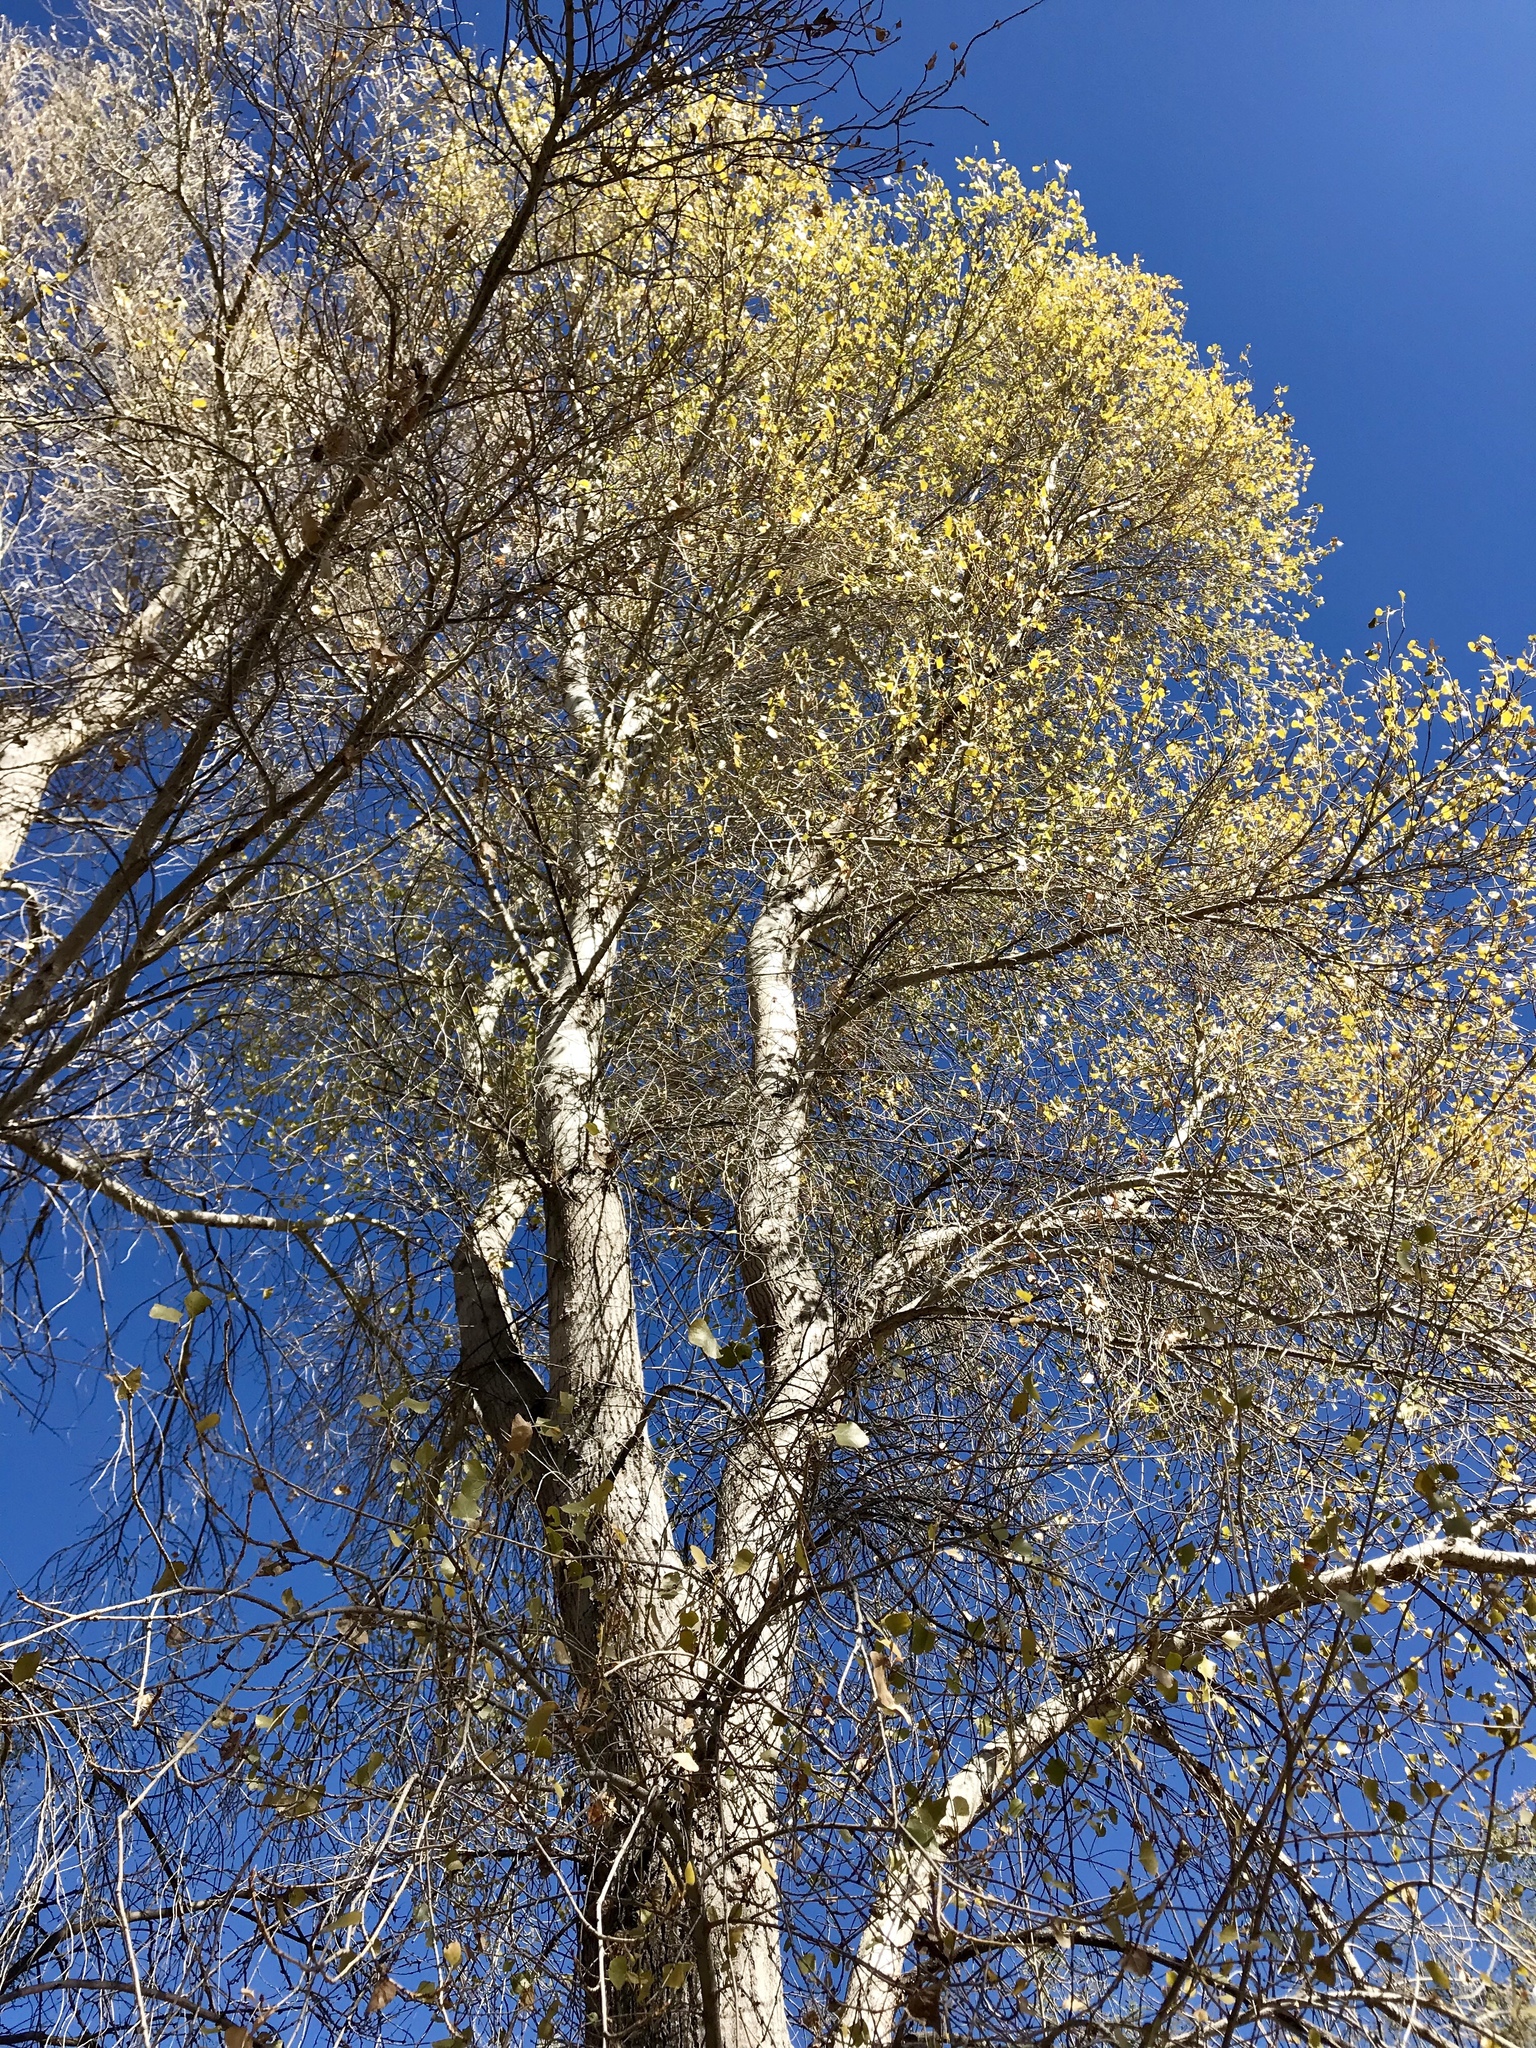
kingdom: Plantae
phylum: Tracheophyta
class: Magnoliopsida
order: Malpighiales
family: Salicaceae
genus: Populus
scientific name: Populus fremontii
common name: Fremont's cottonwood
